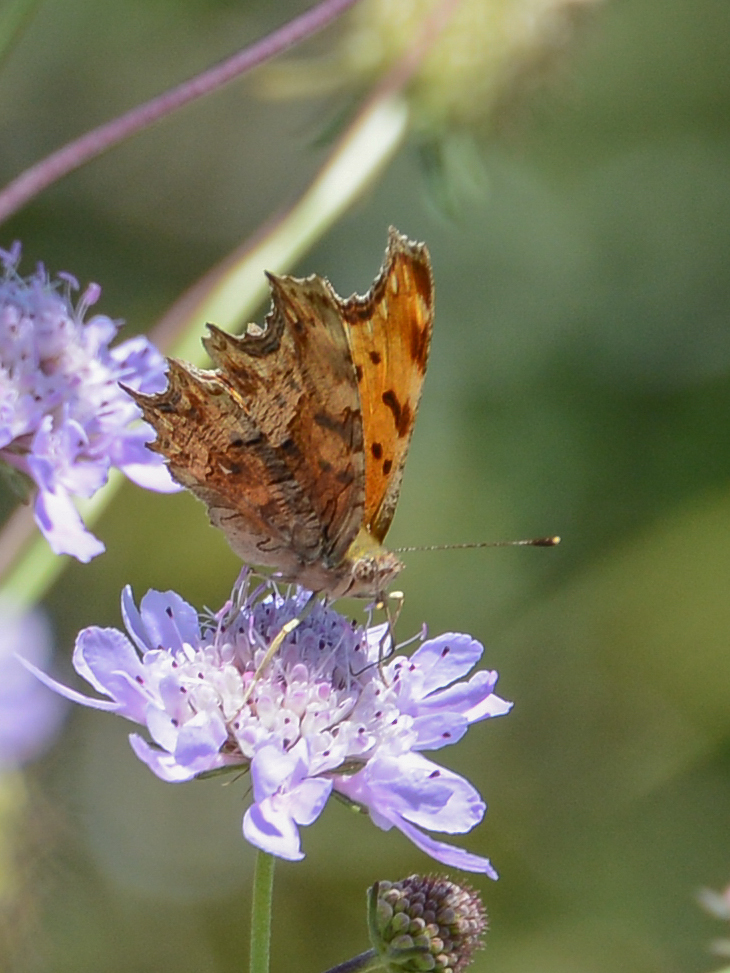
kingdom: Animalia
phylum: Arthropoda
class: Insecta
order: Lepidoptera
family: Nymphalidae
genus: Polygonia
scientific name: Polygonia egea
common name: Southern comma
